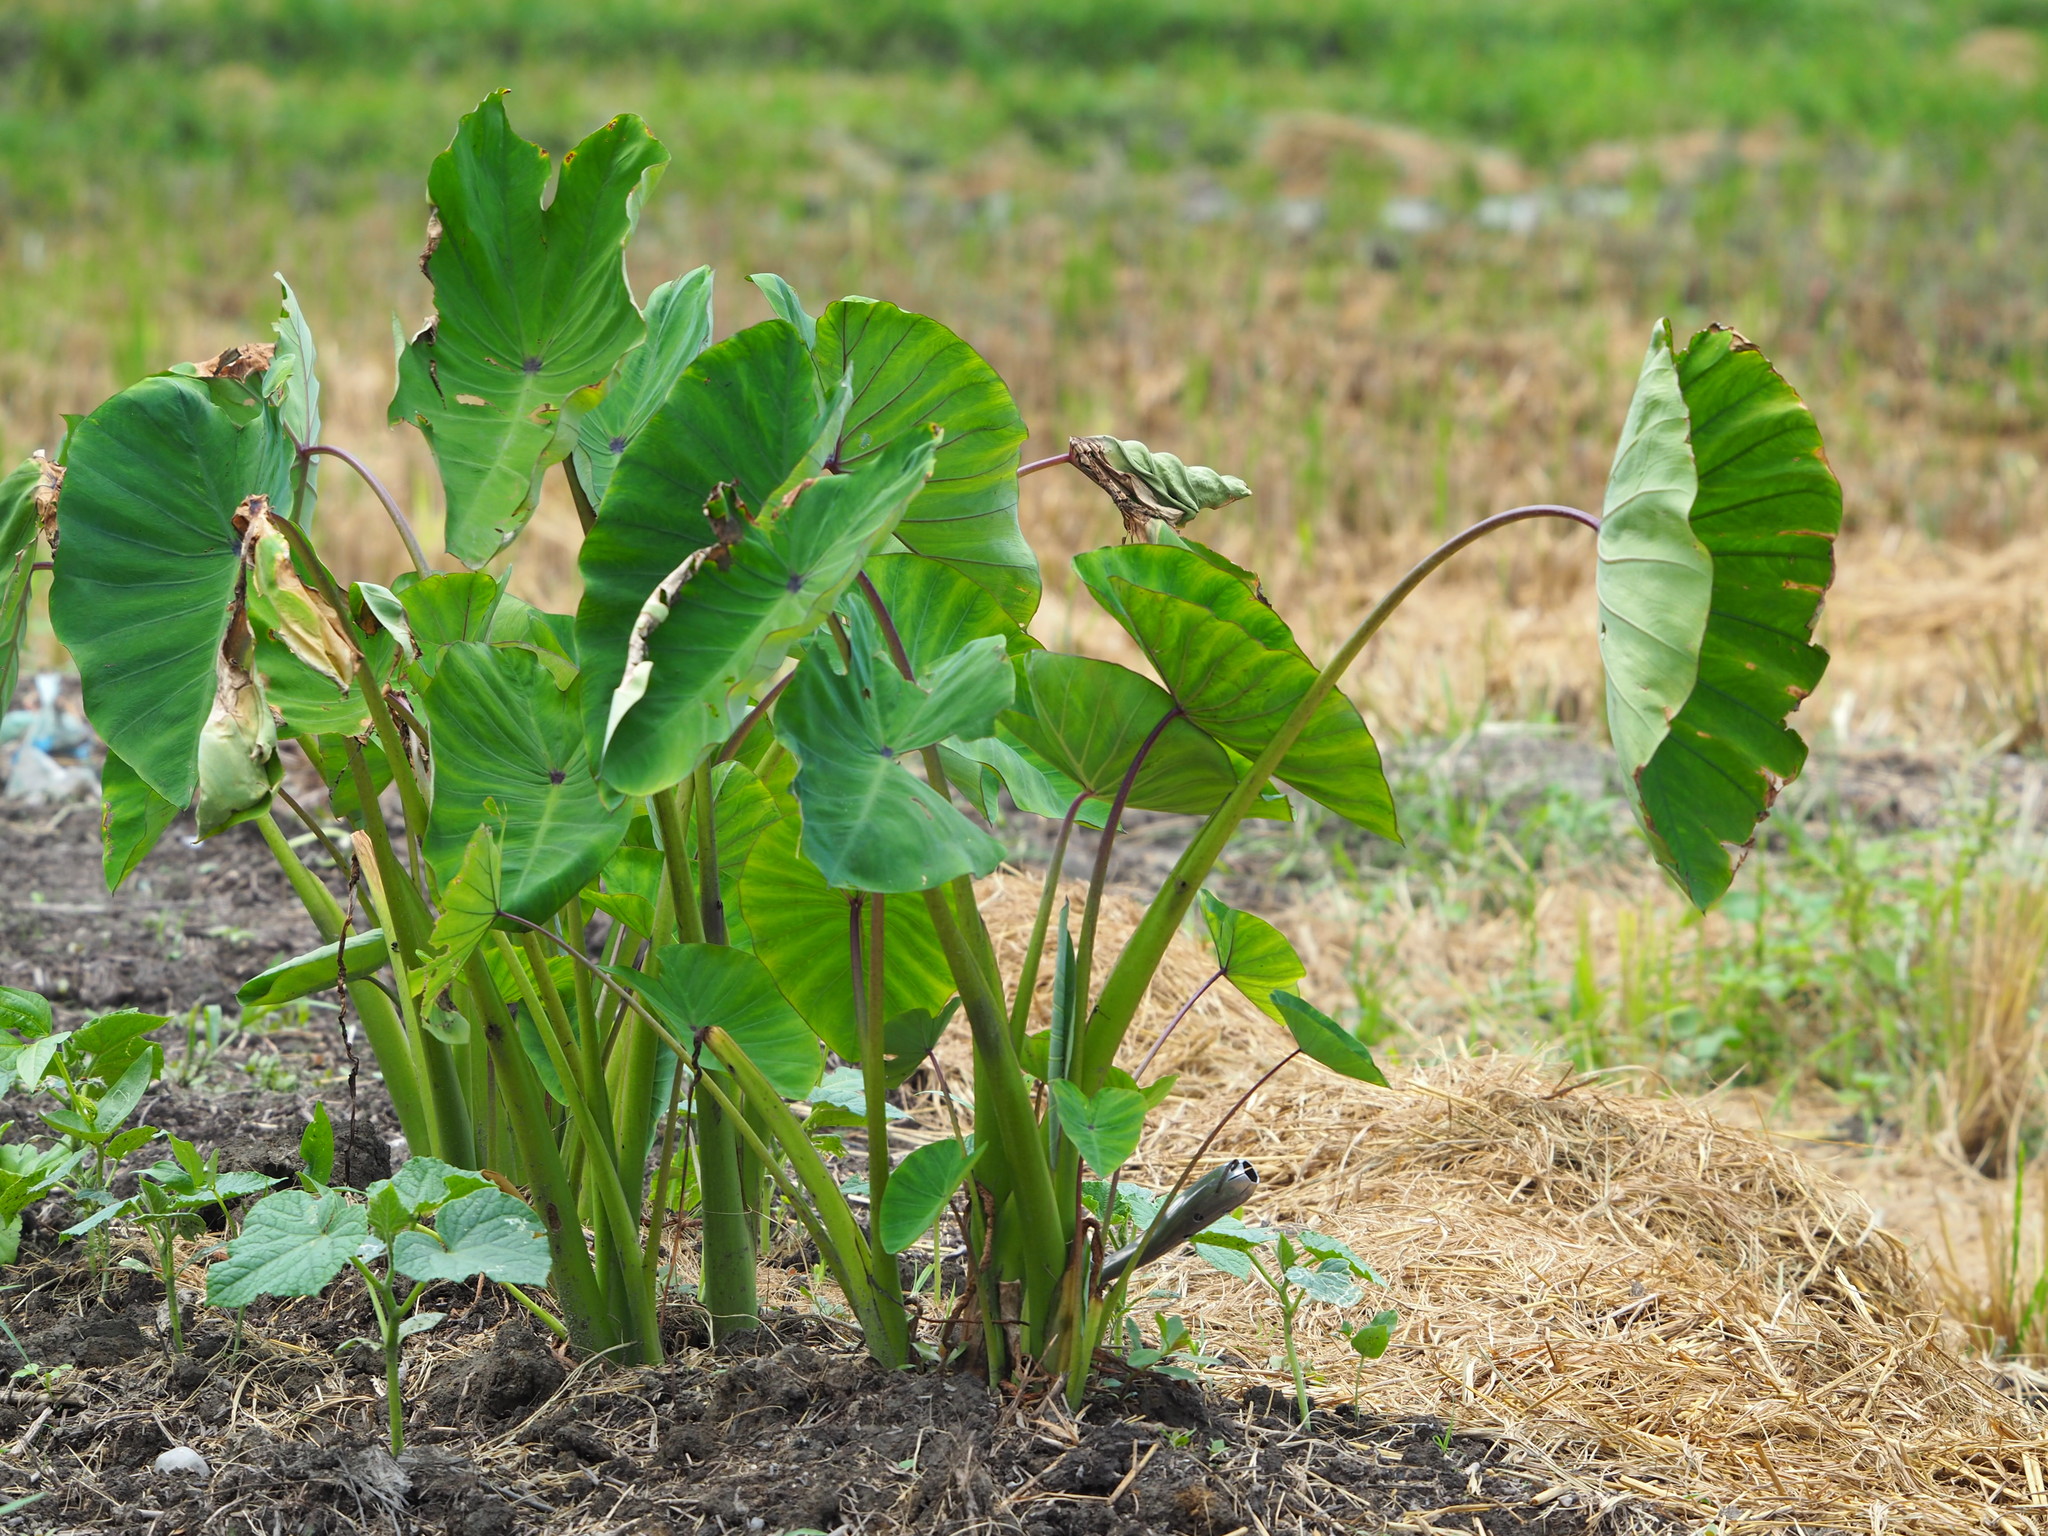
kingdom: Plantae
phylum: Tracheophyta
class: Liliopsida
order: Alismatales
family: Araceae
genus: Colocasia
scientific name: Colocasia esculenta
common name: Taro
